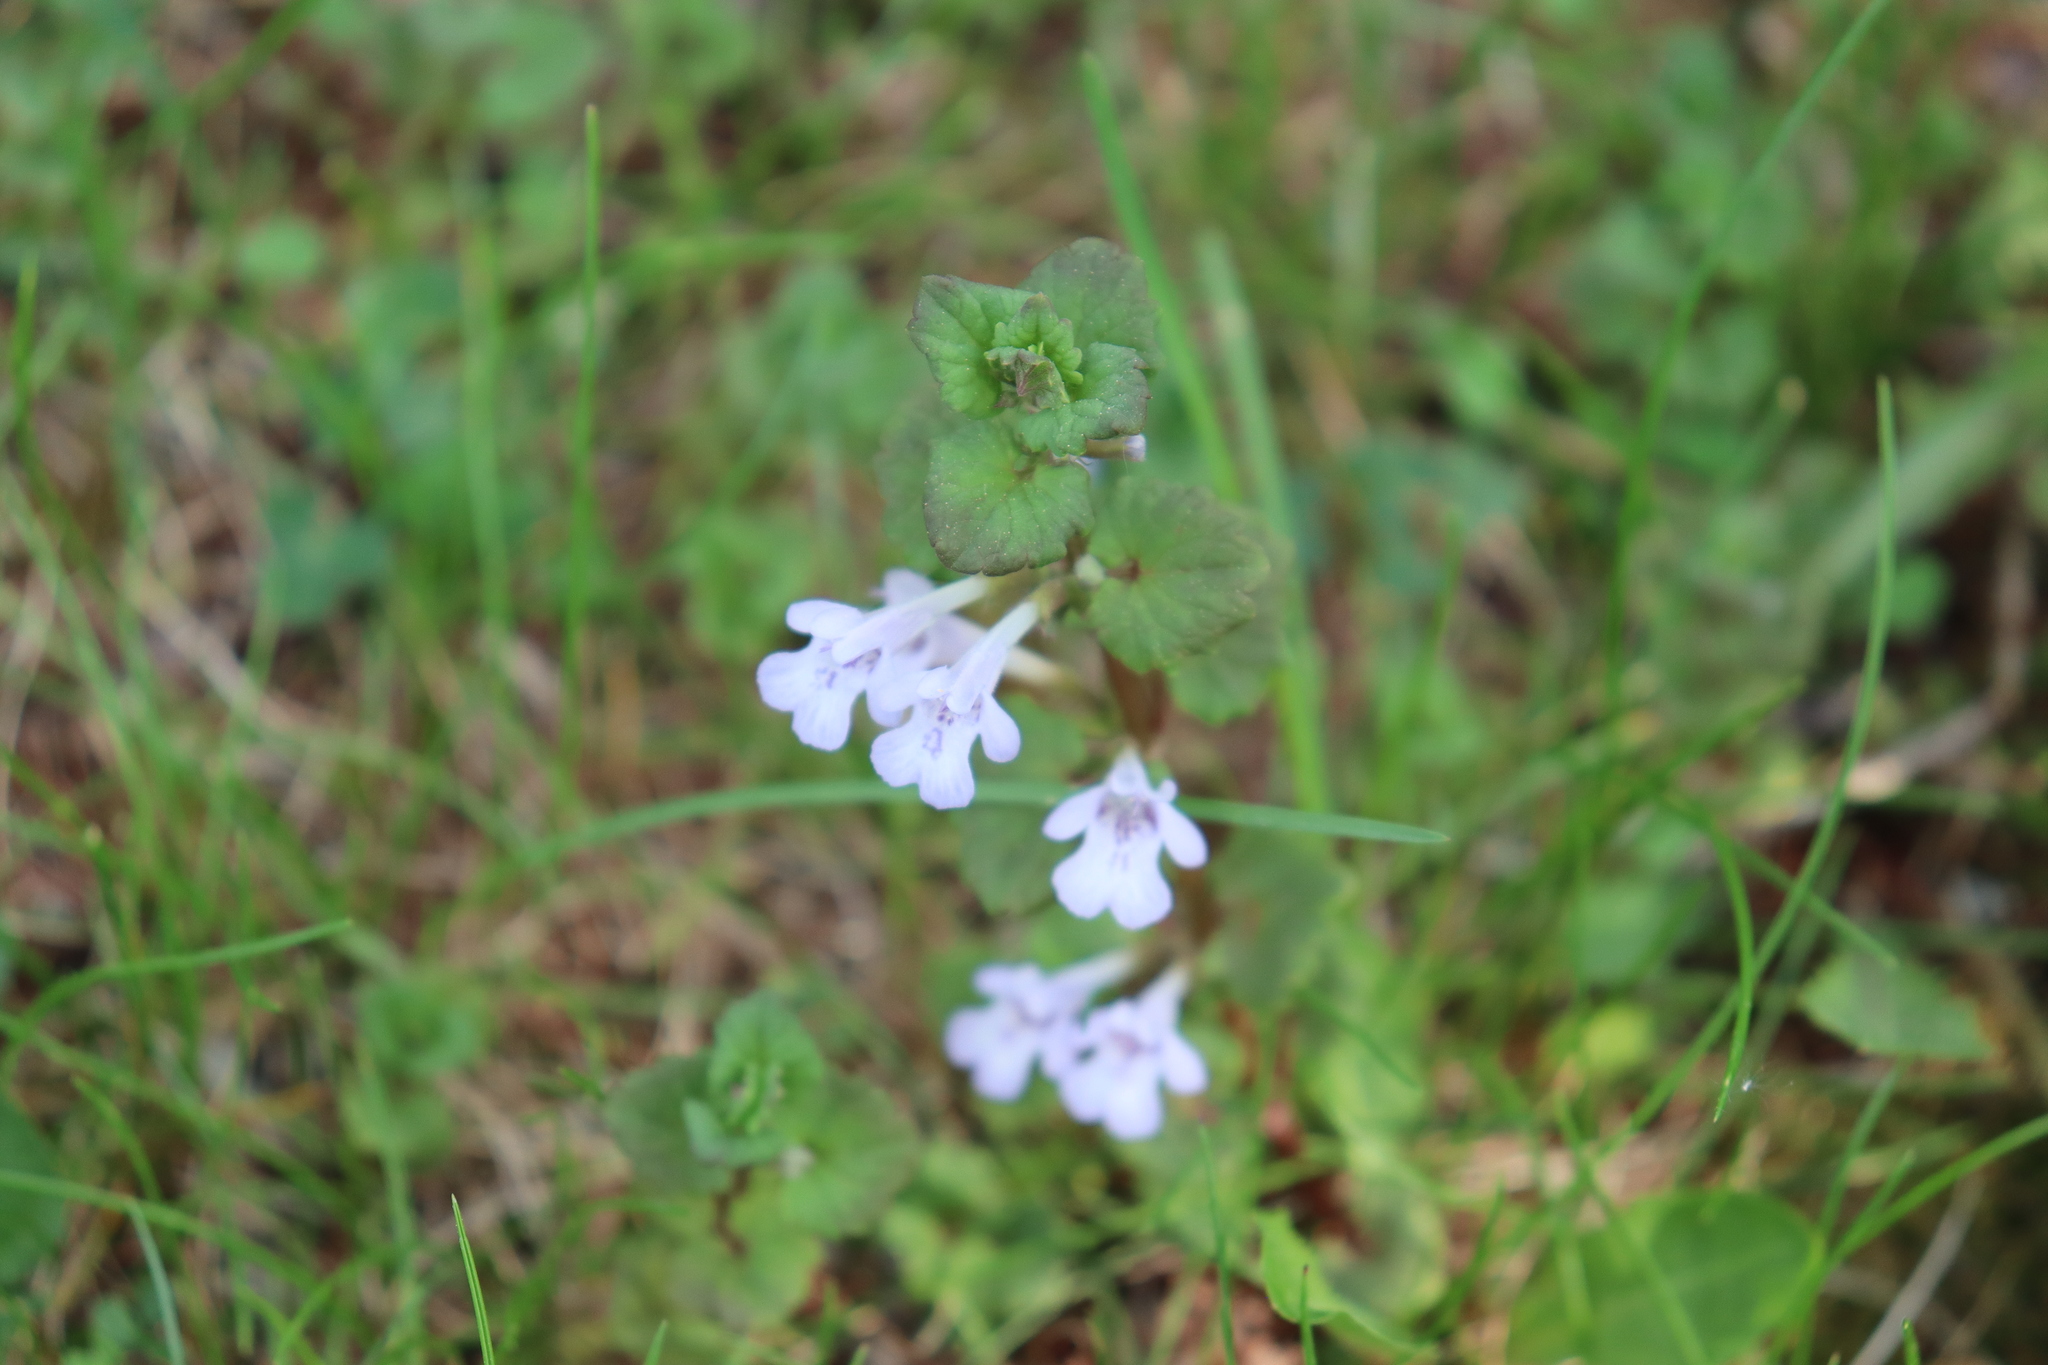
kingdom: Plantae
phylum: Tracheophyta
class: Magnoliopsida
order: Lamiales
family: Lamiaceae
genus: Glechoma
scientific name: Glechoma hederacea
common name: Ground ivy
